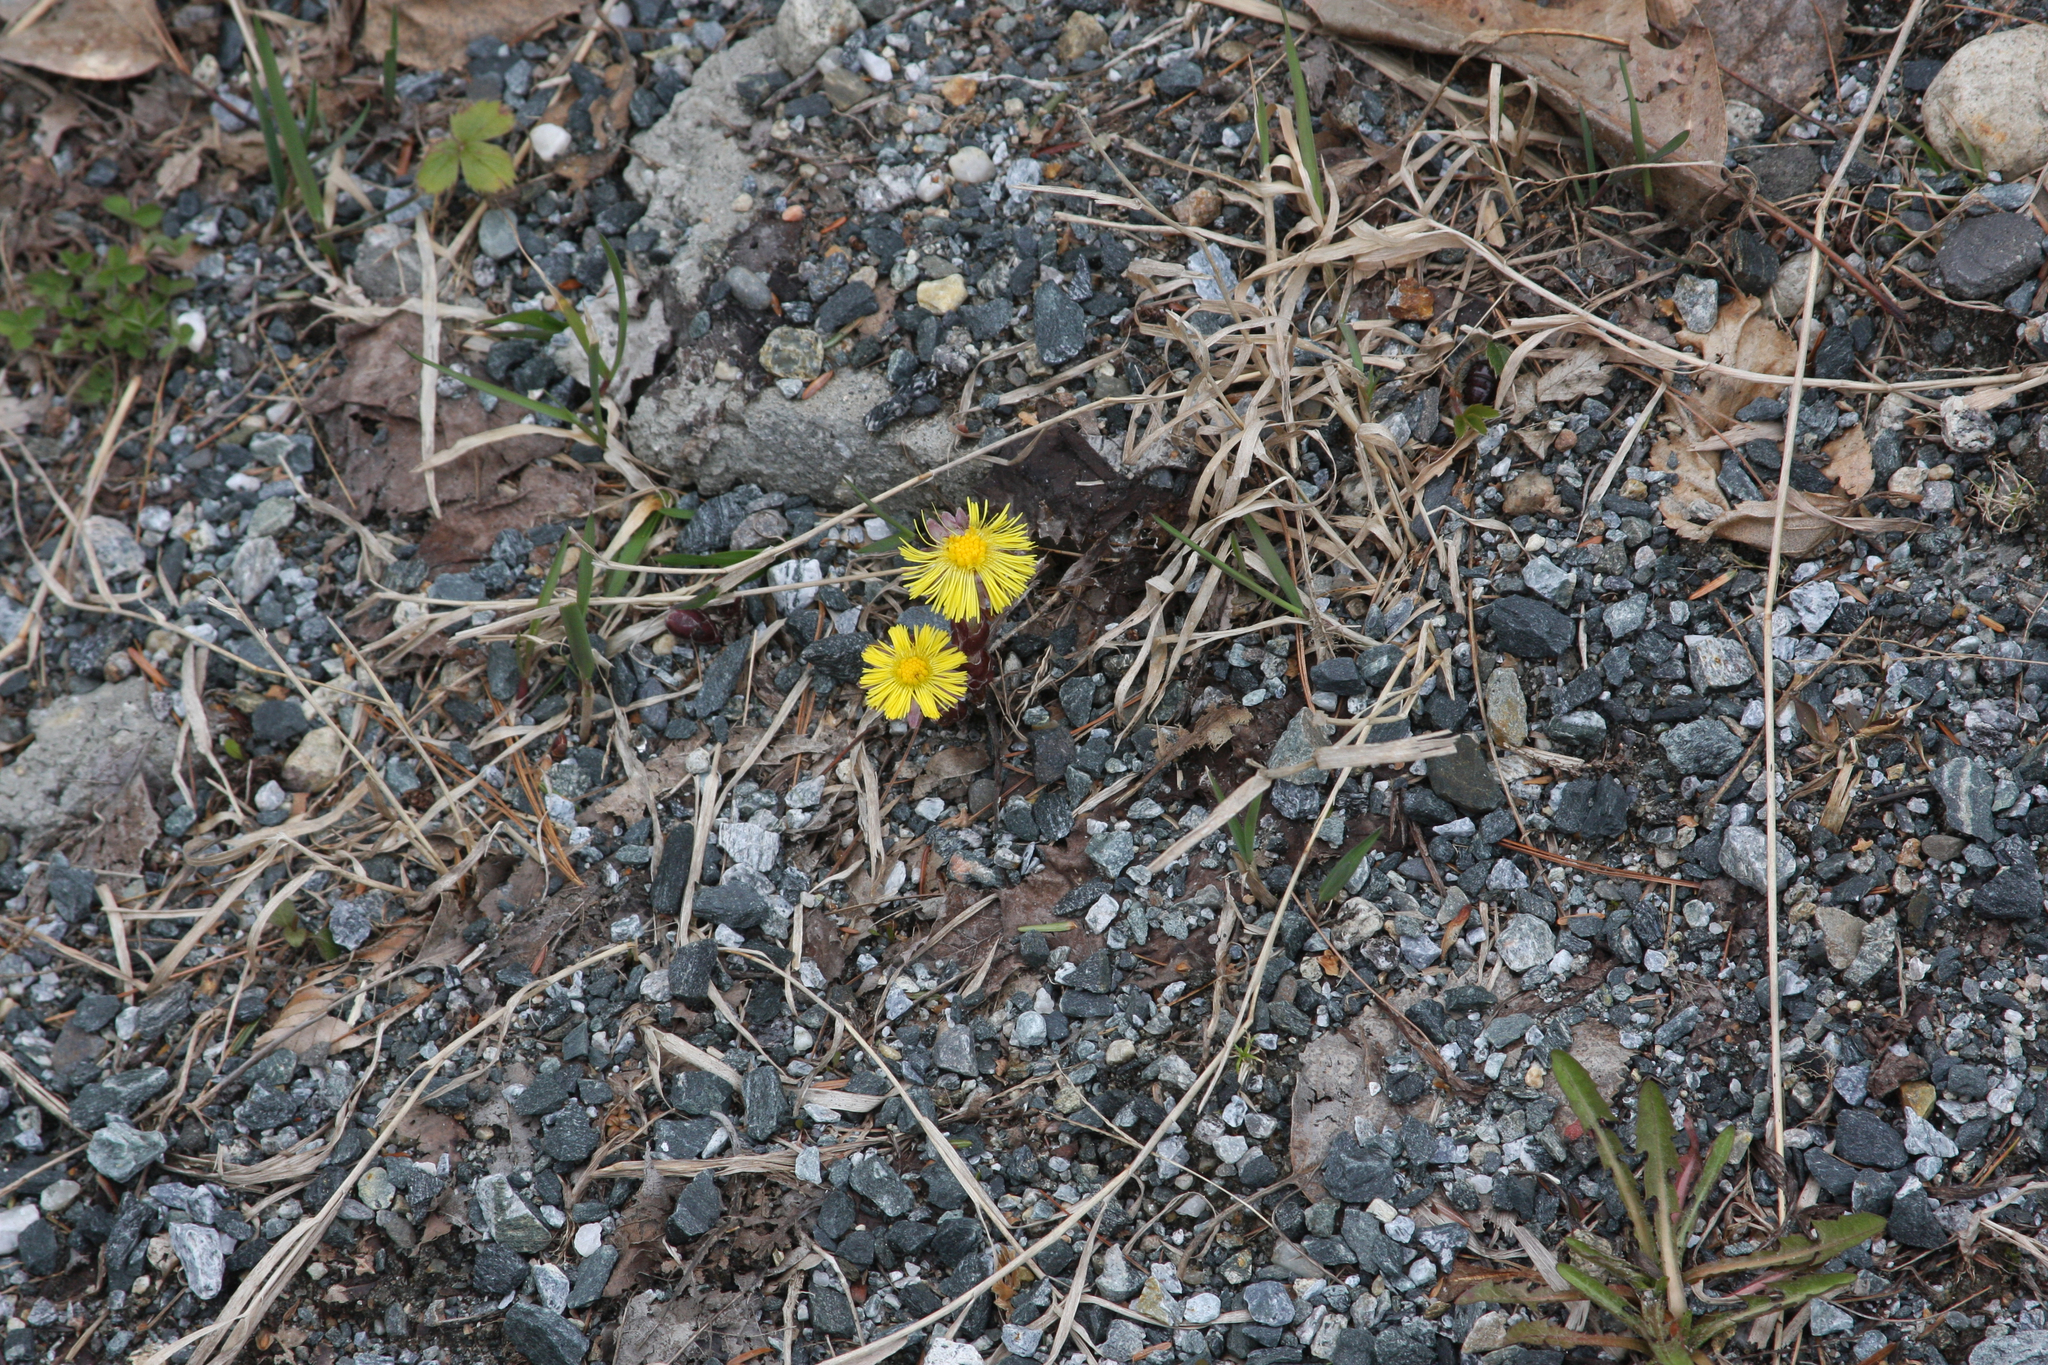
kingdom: Plantae
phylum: Tracheophyta
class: Magnoliopsida
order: Asterales
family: Asteraceae
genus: Tussilago
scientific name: Tussilago farfara
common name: Coltsfoot
